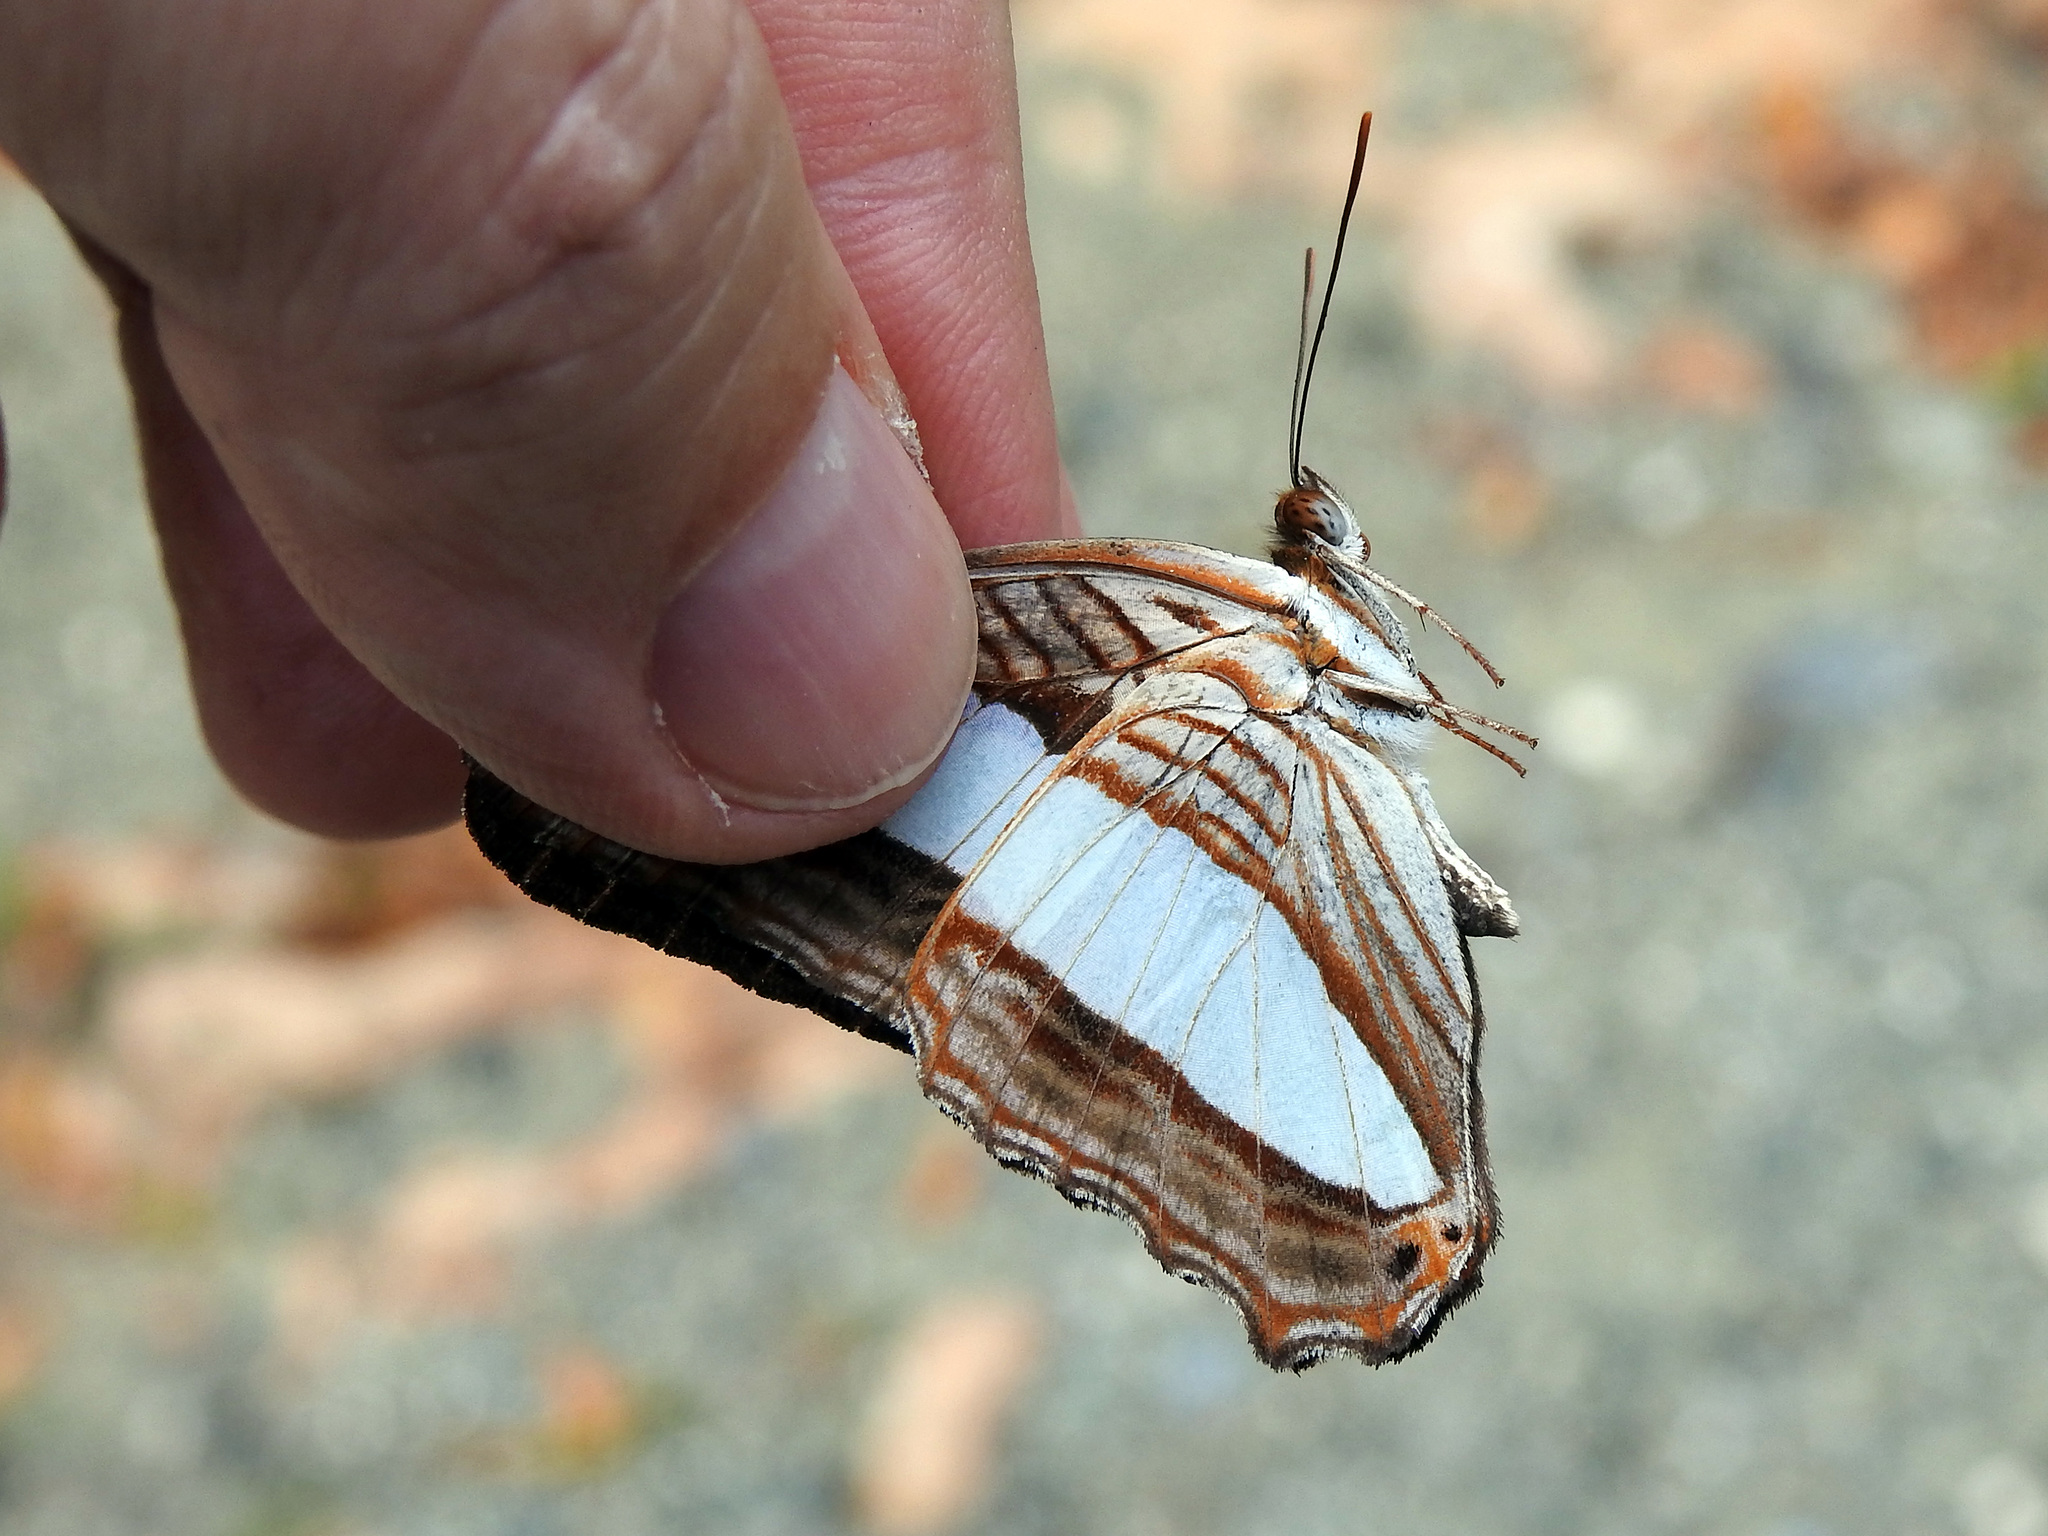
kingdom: Animalia
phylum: Arthropoda
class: Insecta
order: Lepidoptera
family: Nymphalidae
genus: Limenitis
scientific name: Limenitis iphiclus
